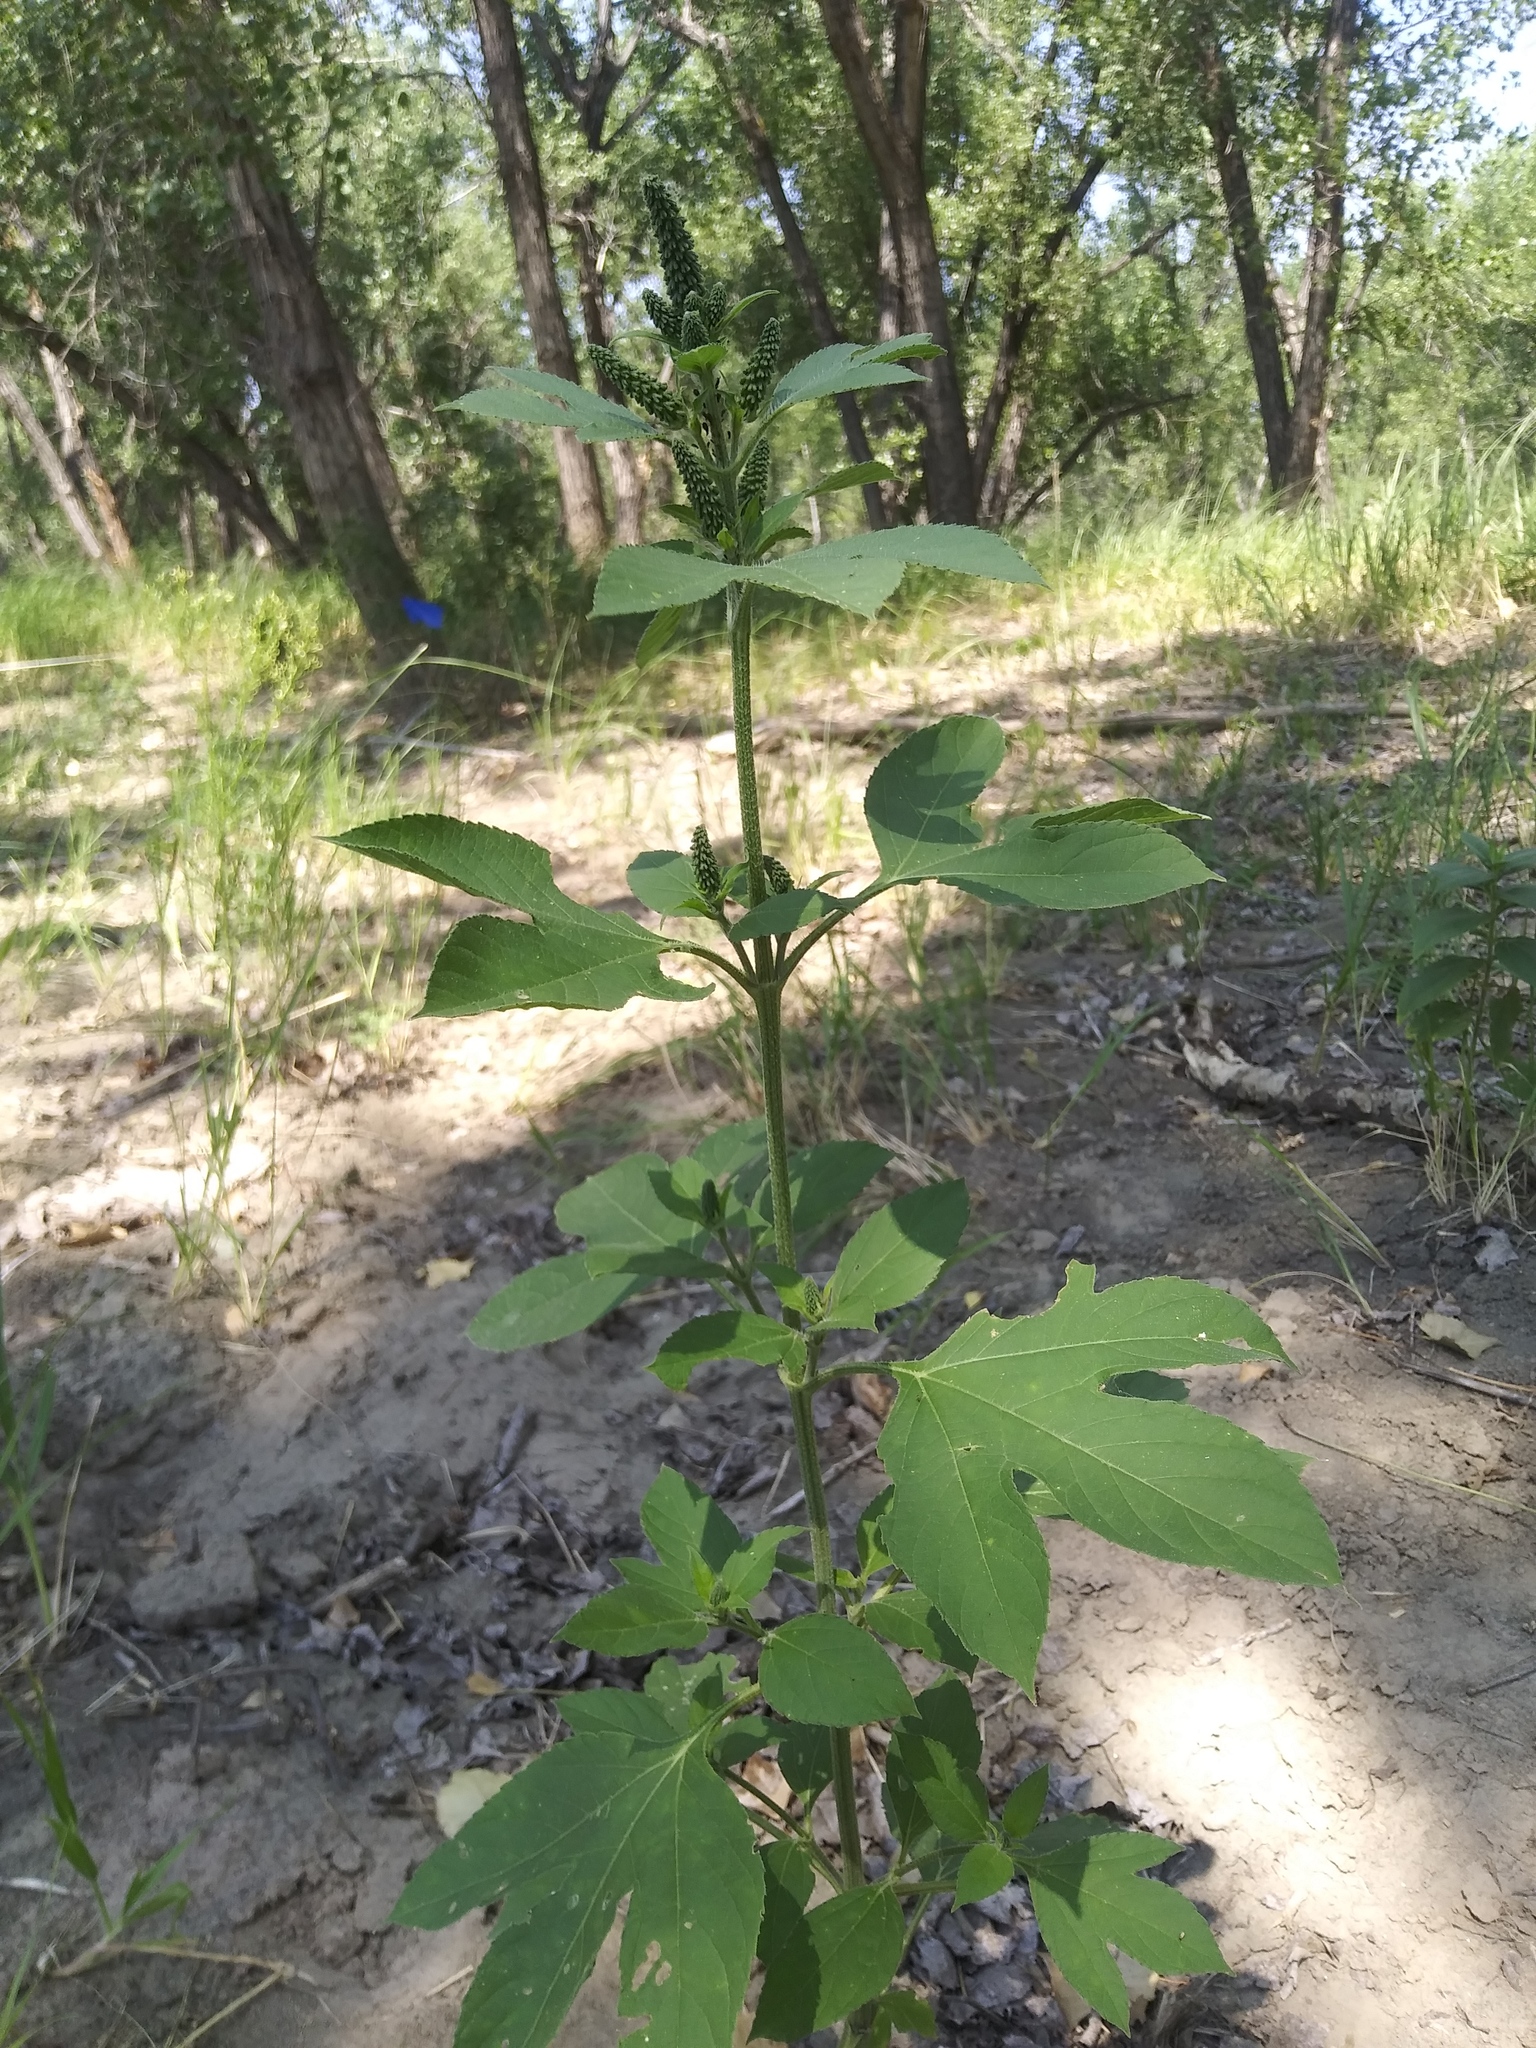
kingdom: Plantae
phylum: Tracheophyta
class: Magnoliopsida
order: Asterales
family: Asteraceae
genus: Ambrosia
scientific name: Ambrosia trifida
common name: Giant ragweed
